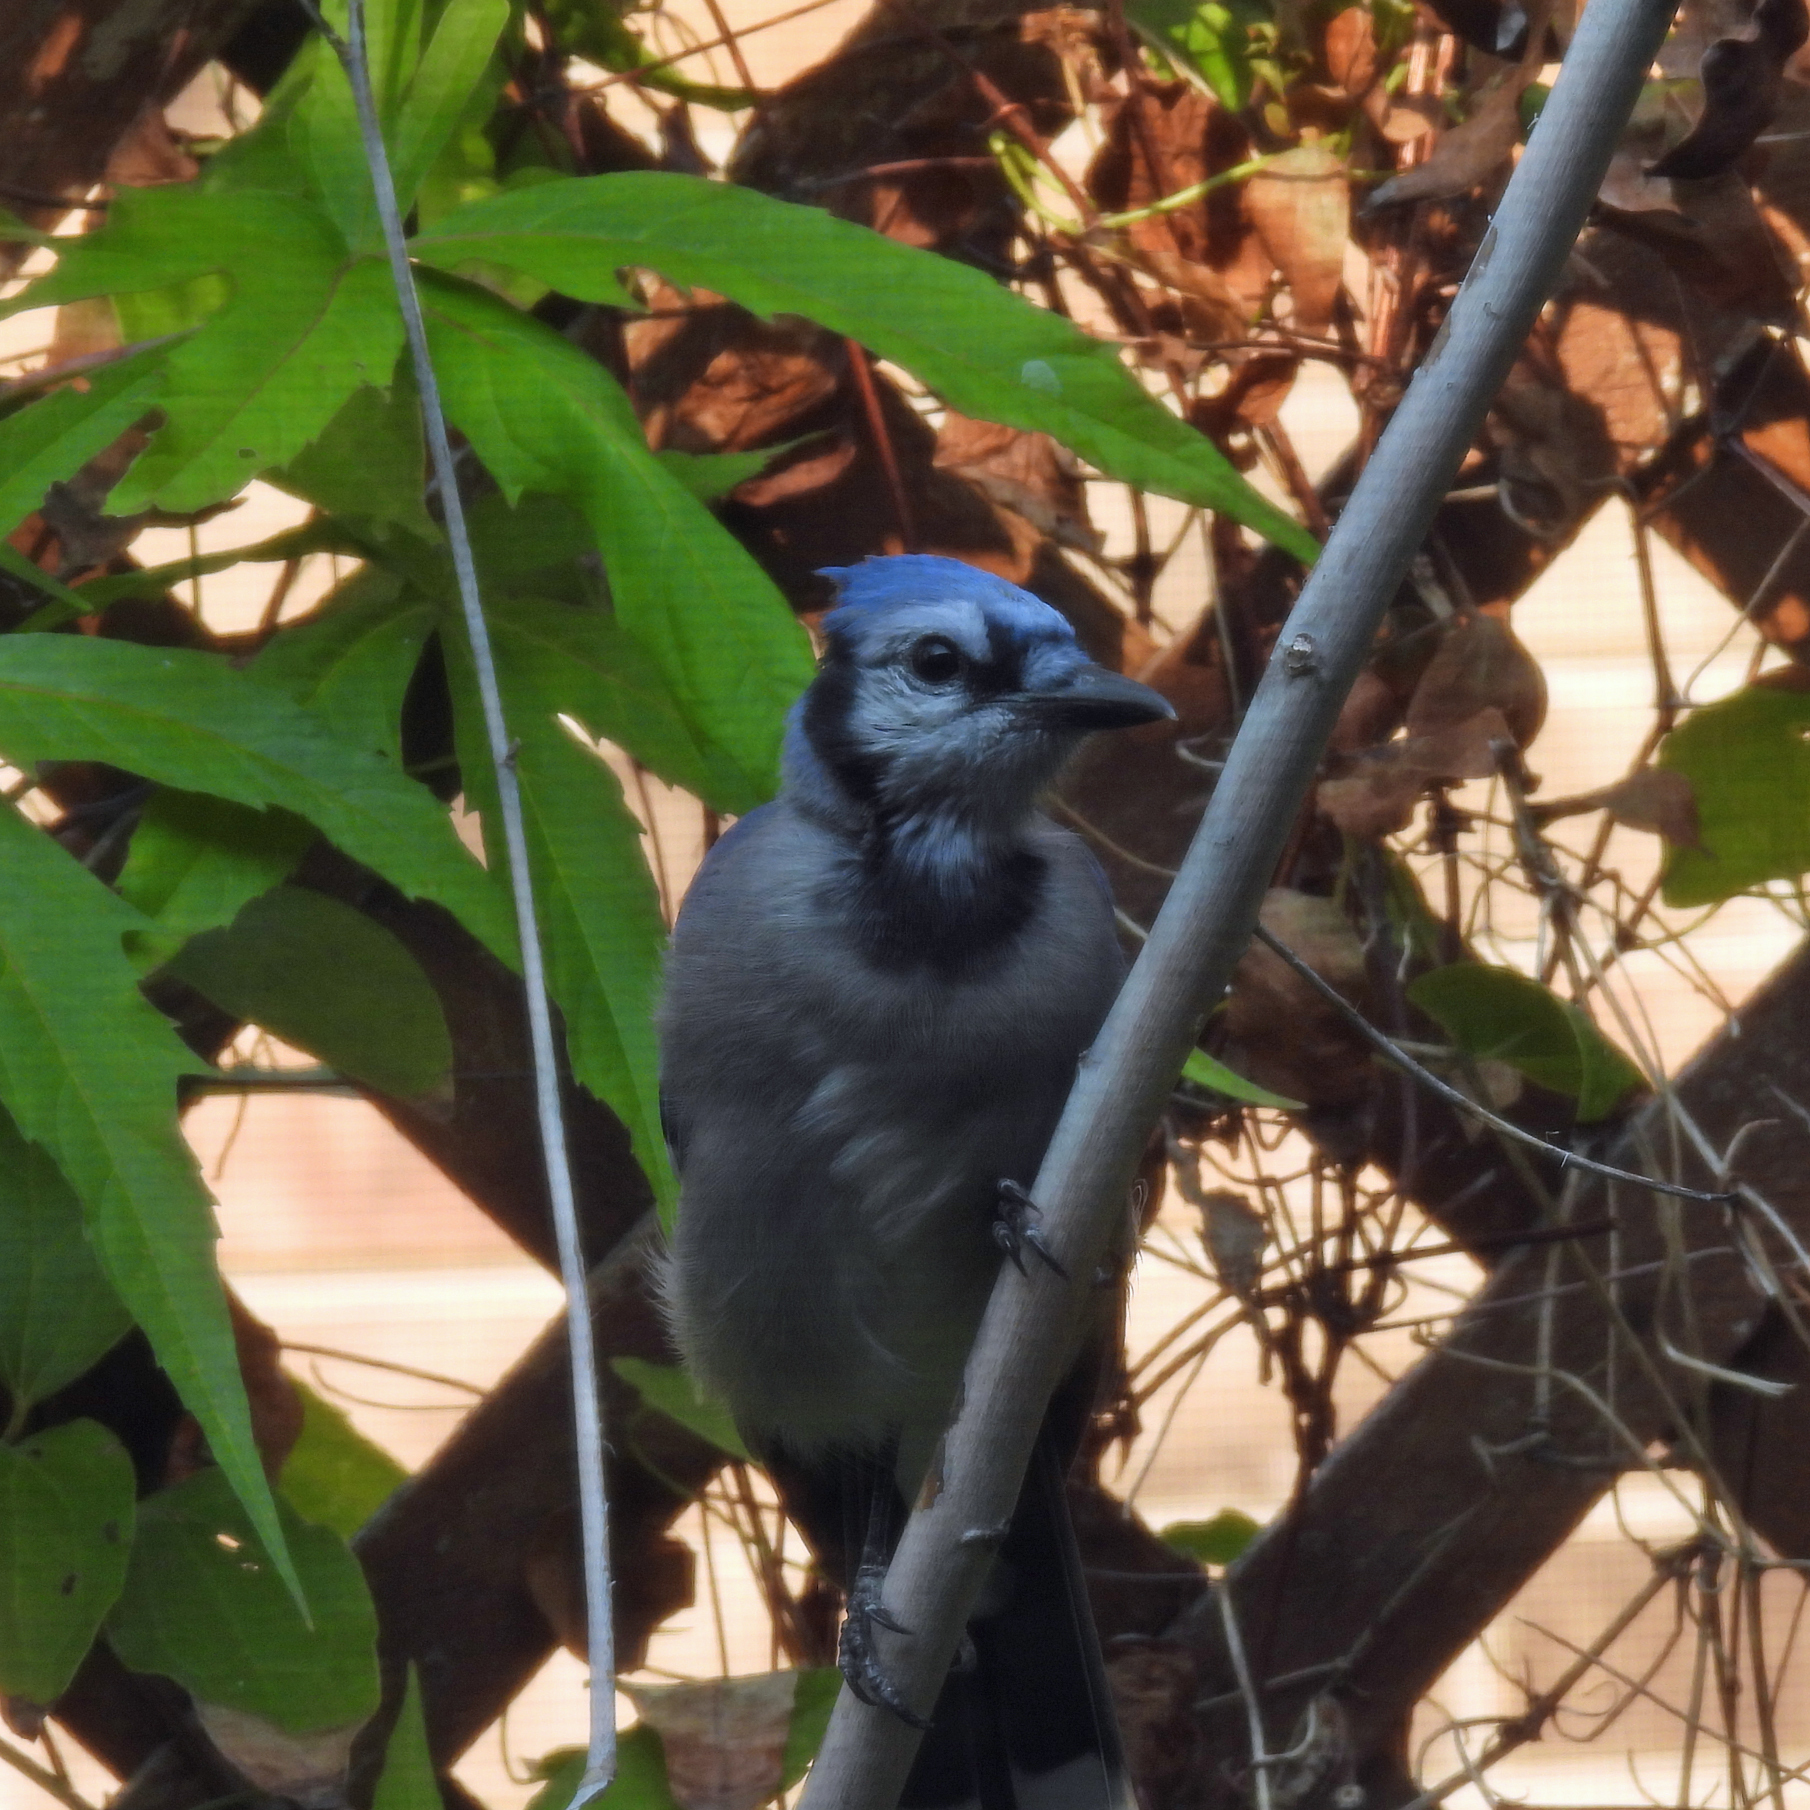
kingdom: Animalia
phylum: Chordata
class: Aves
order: Passeriformes
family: Corvidae
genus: Cyanocitta
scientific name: Cyanocitta cristata
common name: Blue jay
